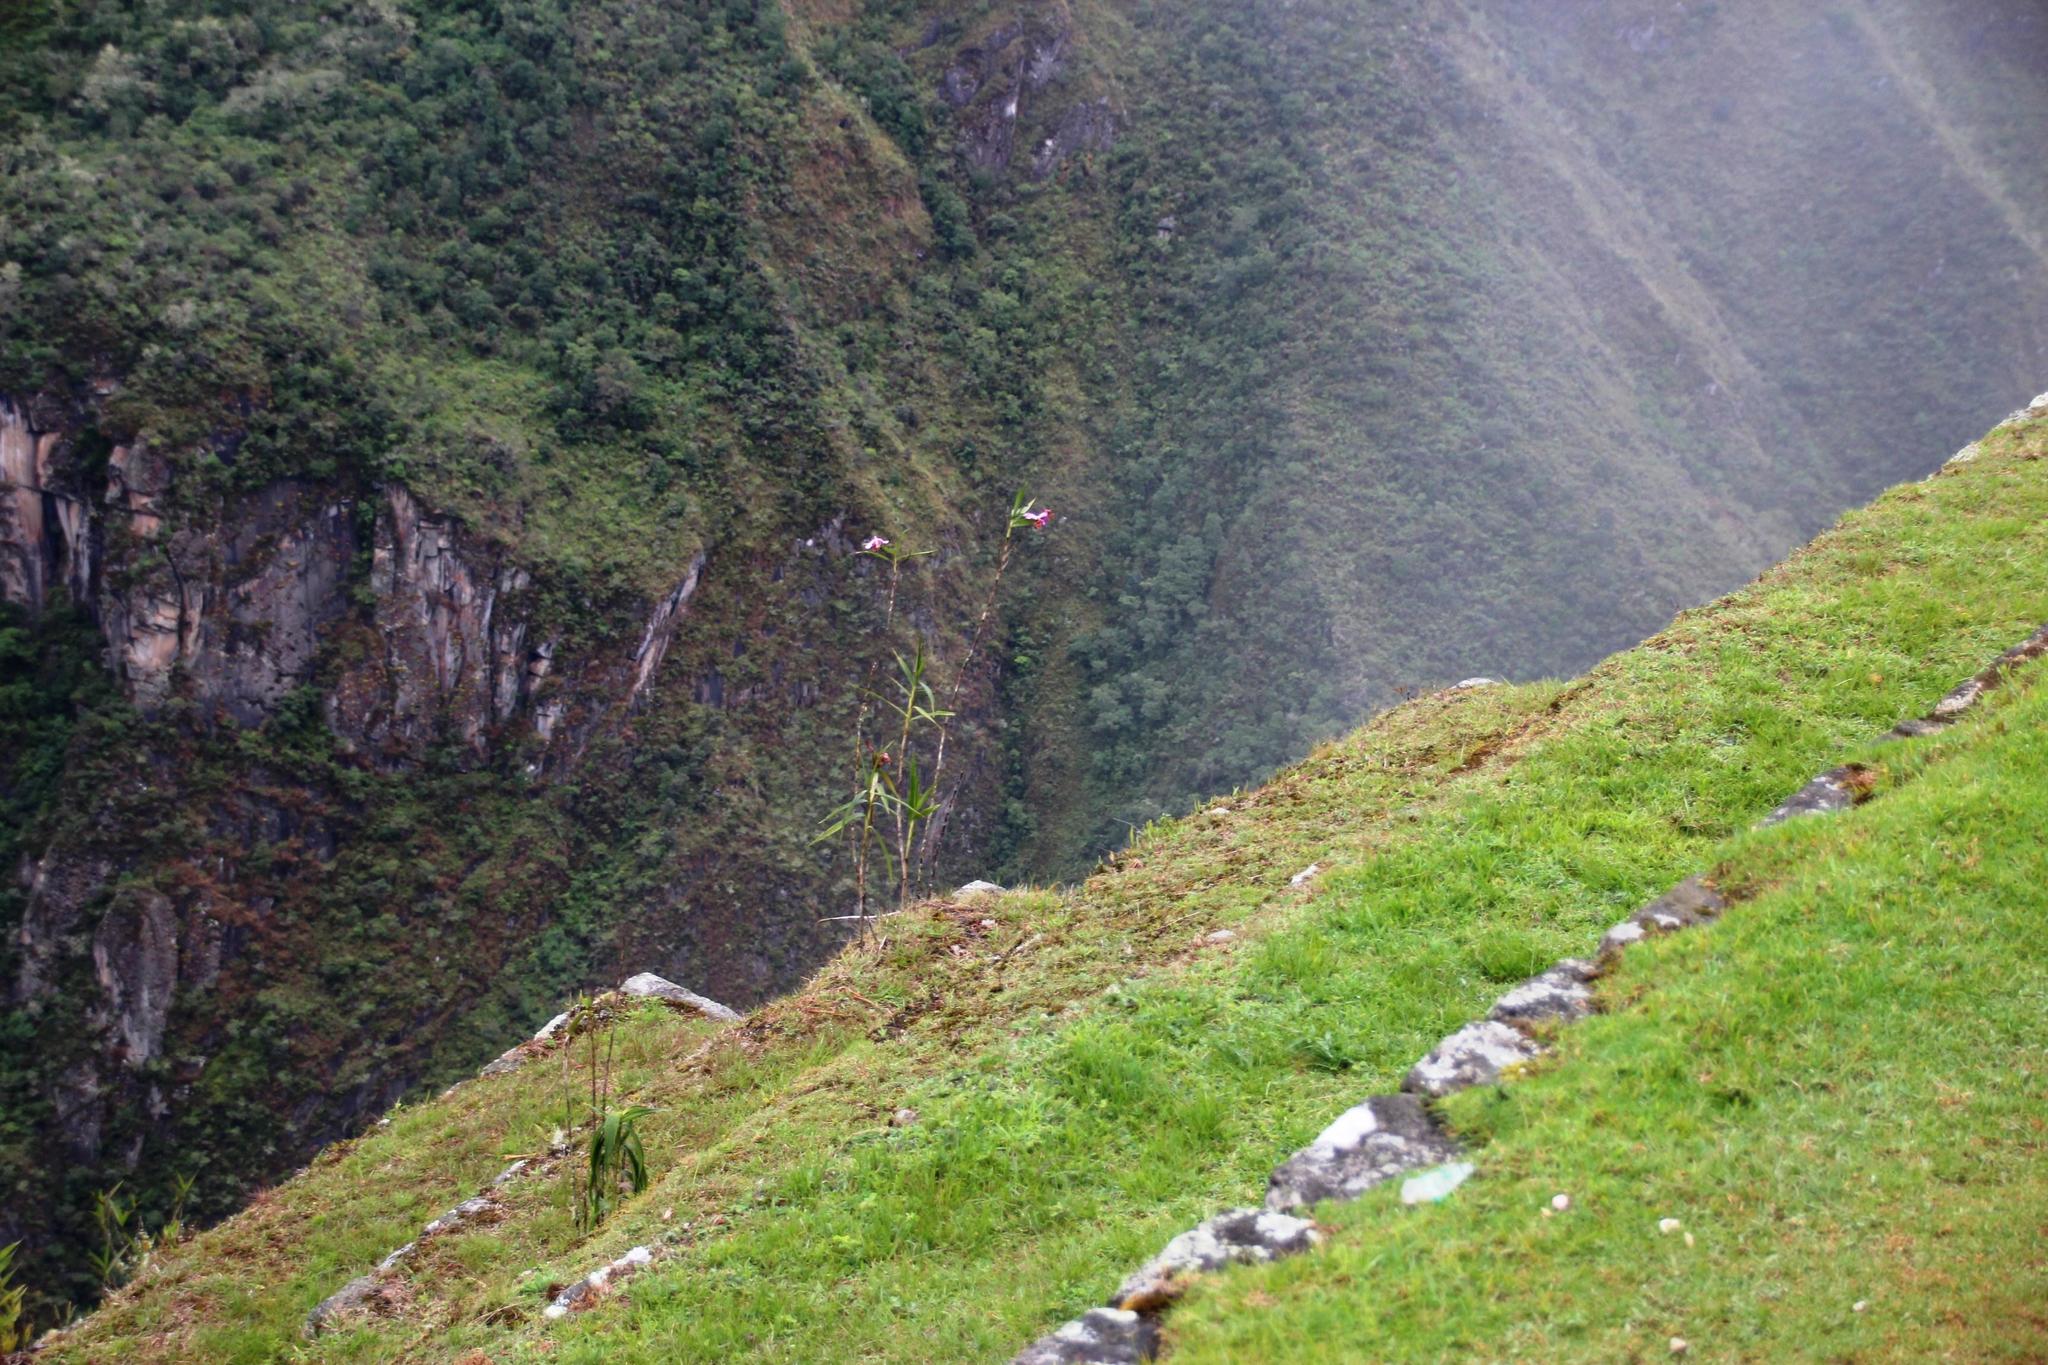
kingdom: Plantae
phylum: Tracheophyta
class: Liliopsida
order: Asparagales
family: Orchidaceae
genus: Sobralia
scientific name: Sobralia dichotoma
